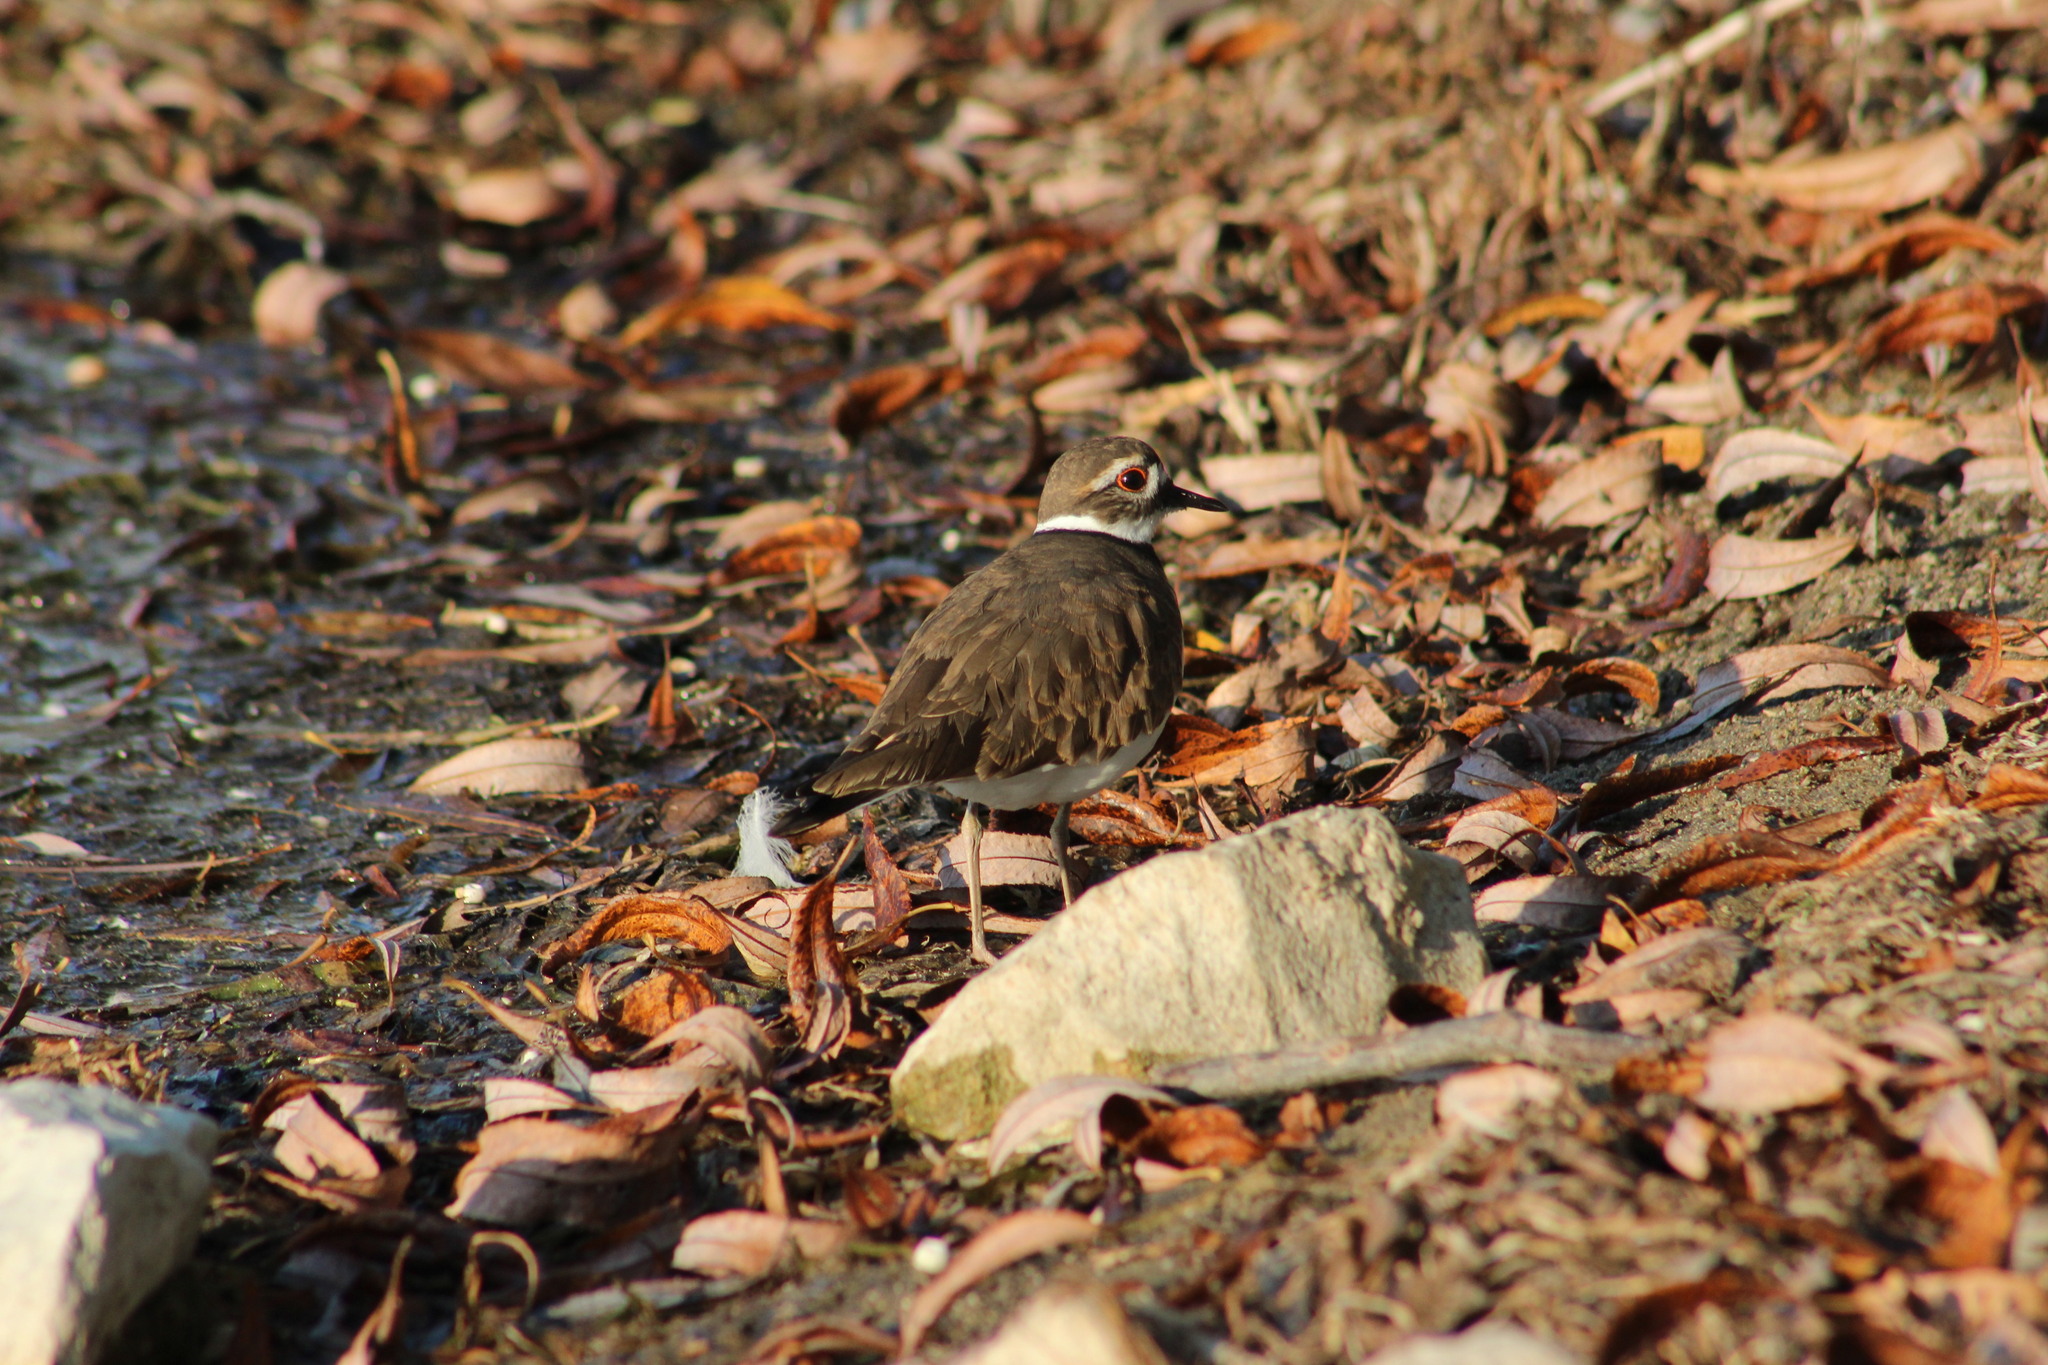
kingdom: Animalia
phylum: Chordata
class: Aves
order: Charadriiformes
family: Charadriidae
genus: Charadrius
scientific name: Charadrius vociferus
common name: Killdeer
